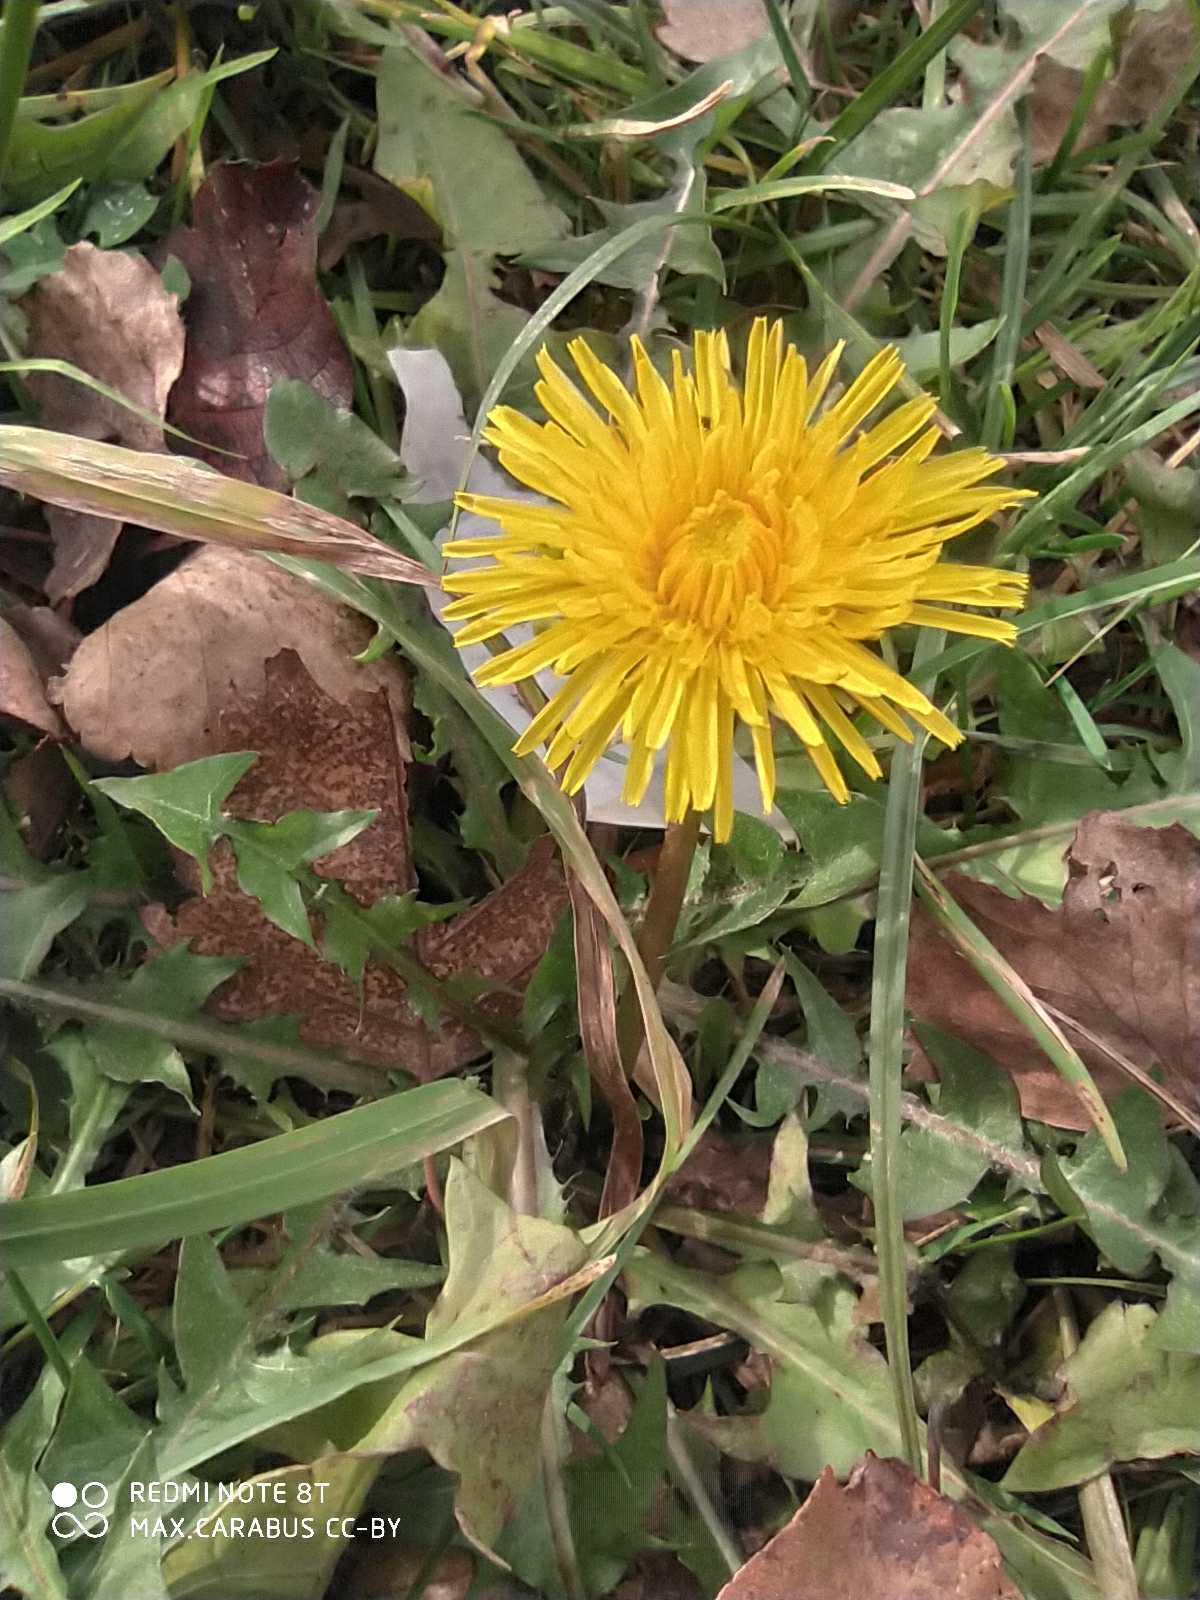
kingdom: Plantae
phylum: Tracheophyta
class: Magnoliopsida
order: Asterales
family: Asteraceae
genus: Taraxacum
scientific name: Taraxacum officinale
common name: Common dandelion
